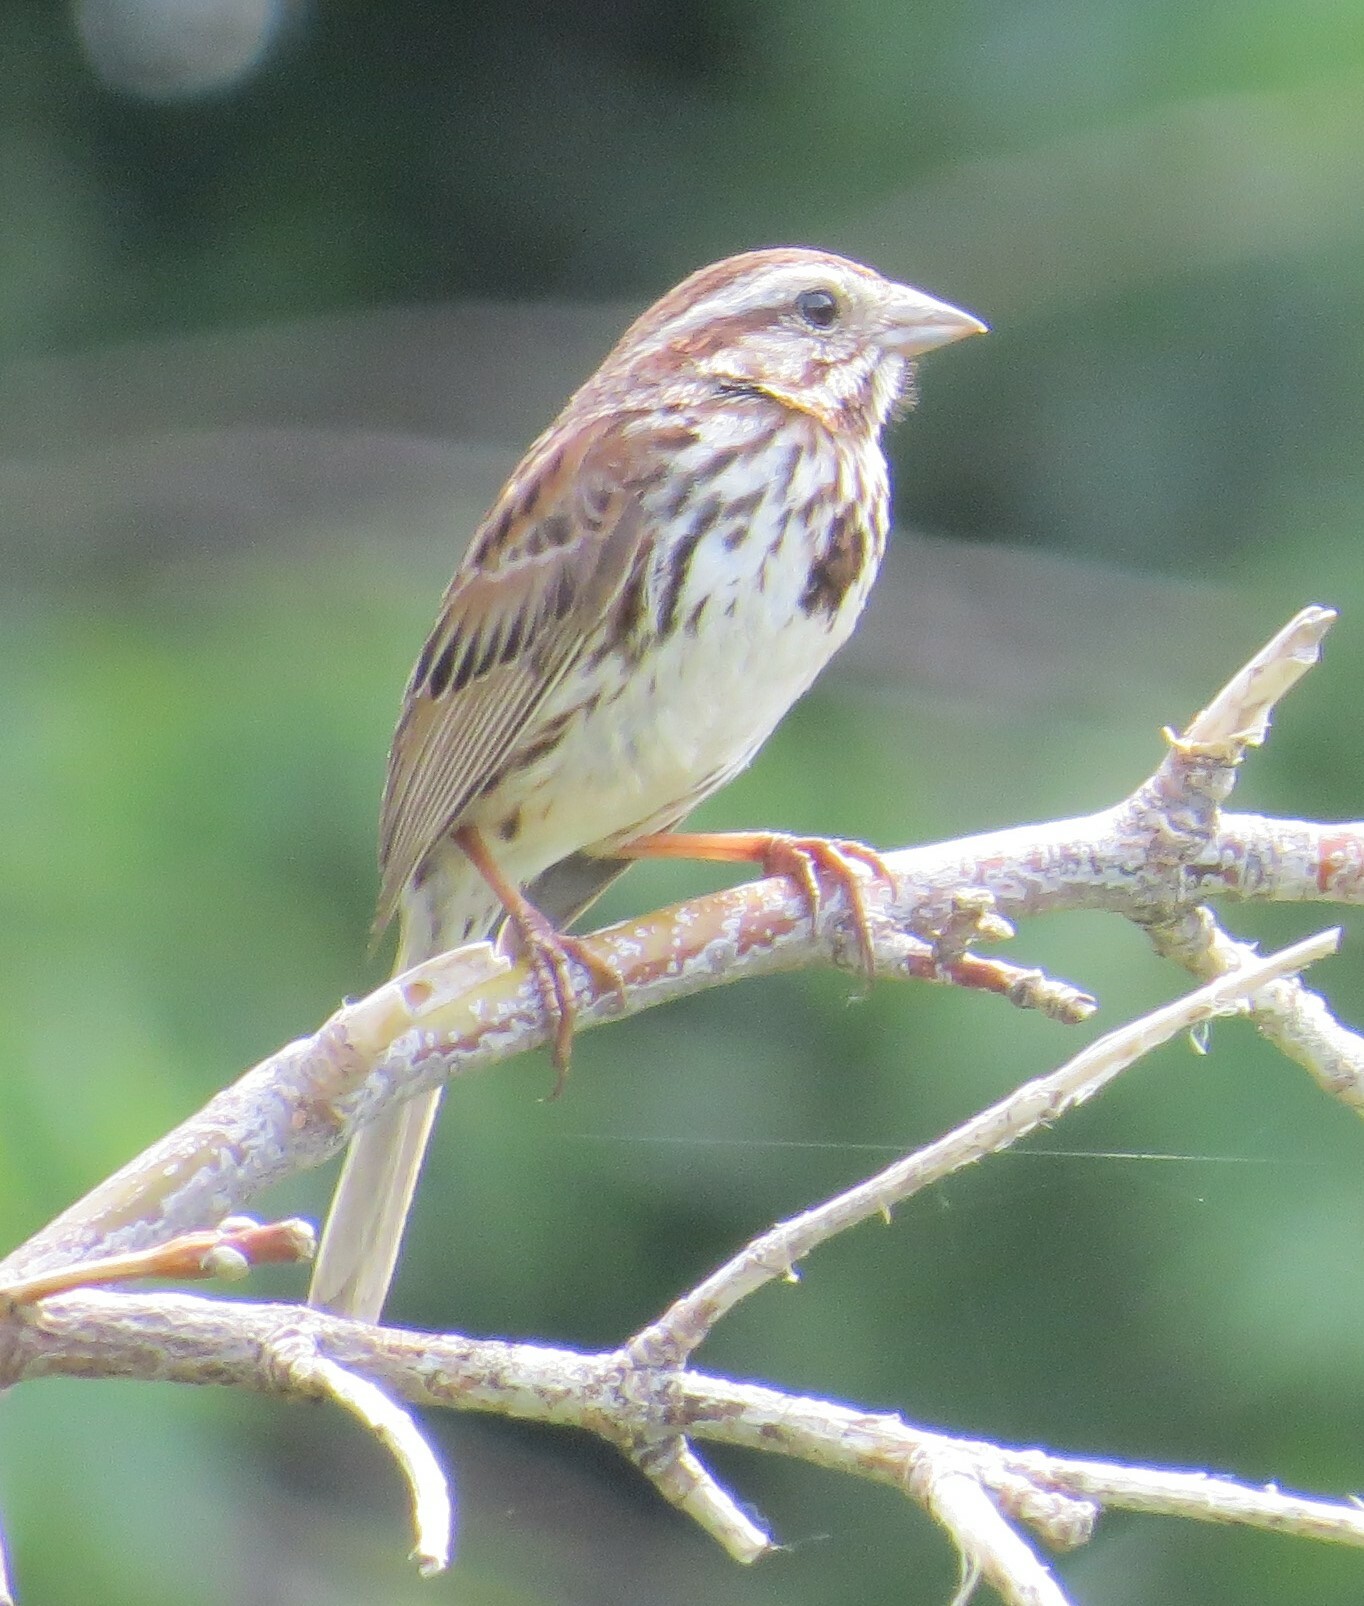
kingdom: Animalia
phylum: Chordata
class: Aves
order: Passeriformes
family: Passerellidae
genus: Melospiza
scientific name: Melospiza melodia
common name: Song sparrow
